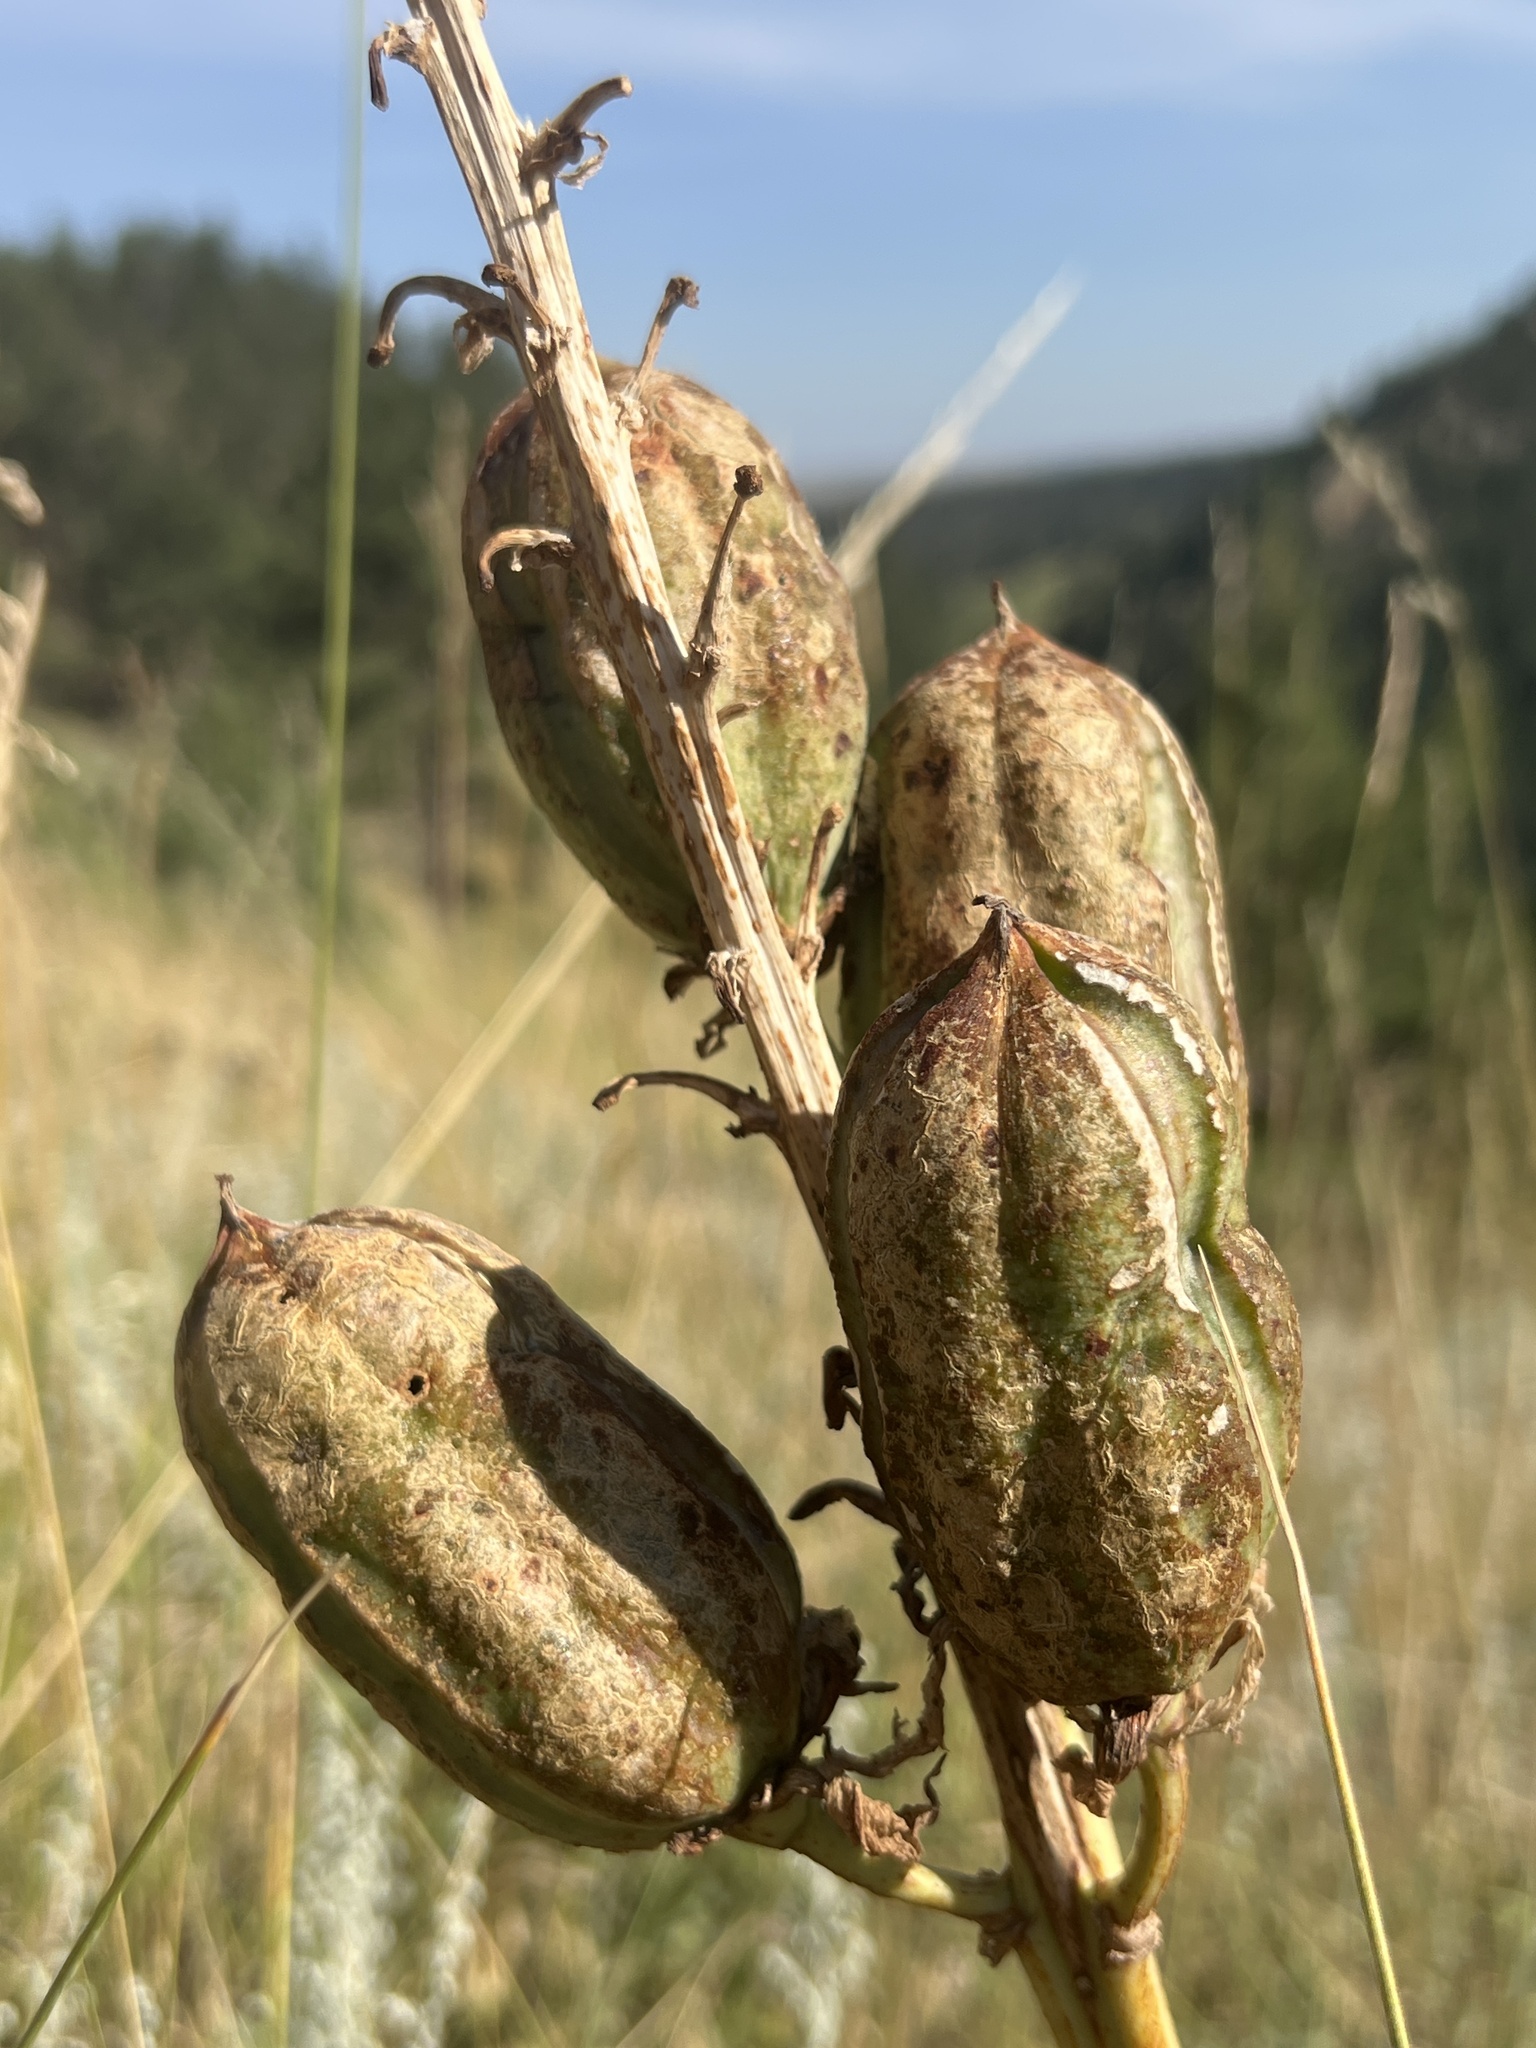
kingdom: Plantae
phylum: Tracheophyta
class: Liliopsida
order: Asparagales
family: Asparagaceae
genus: Yucca
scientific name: Yucca glauca
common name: Great plains yucca
